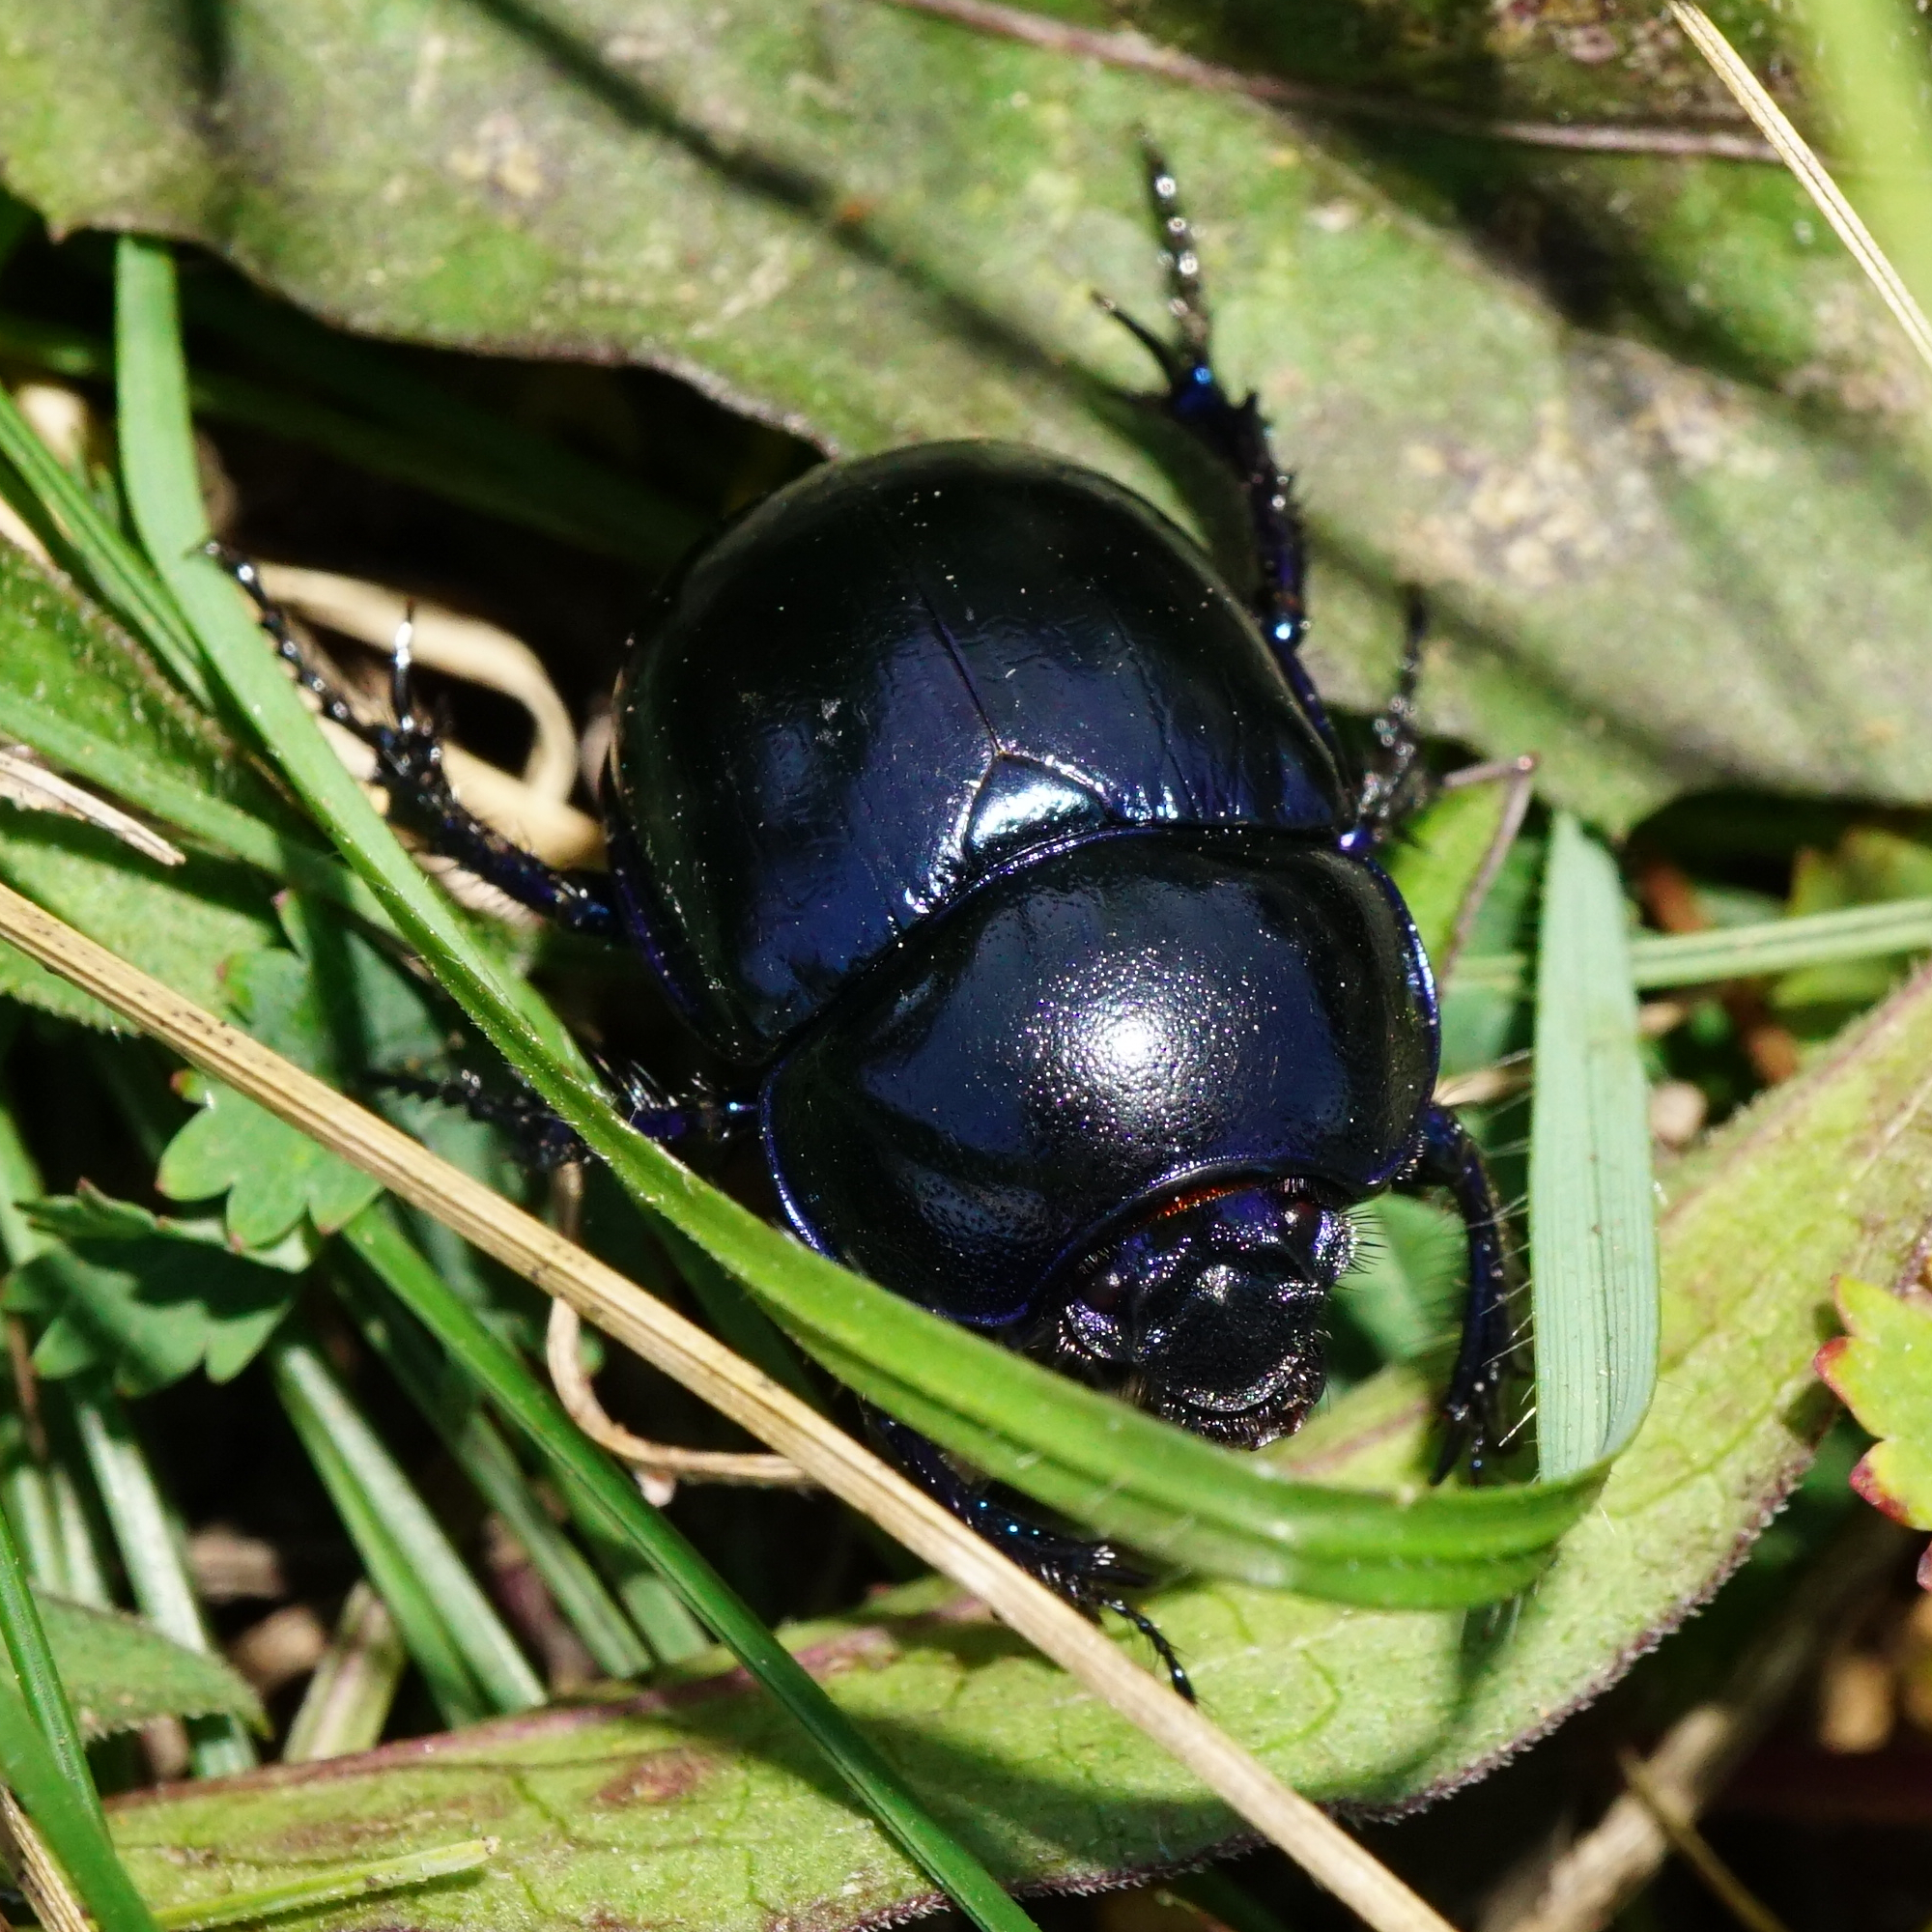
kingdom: Animalia
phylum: Arthropoda
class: Insecta
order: Coleoptera
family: Geotrupidae
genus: Trypocopris
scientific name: Trypocopris vernalis
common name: Spring dumbledor
